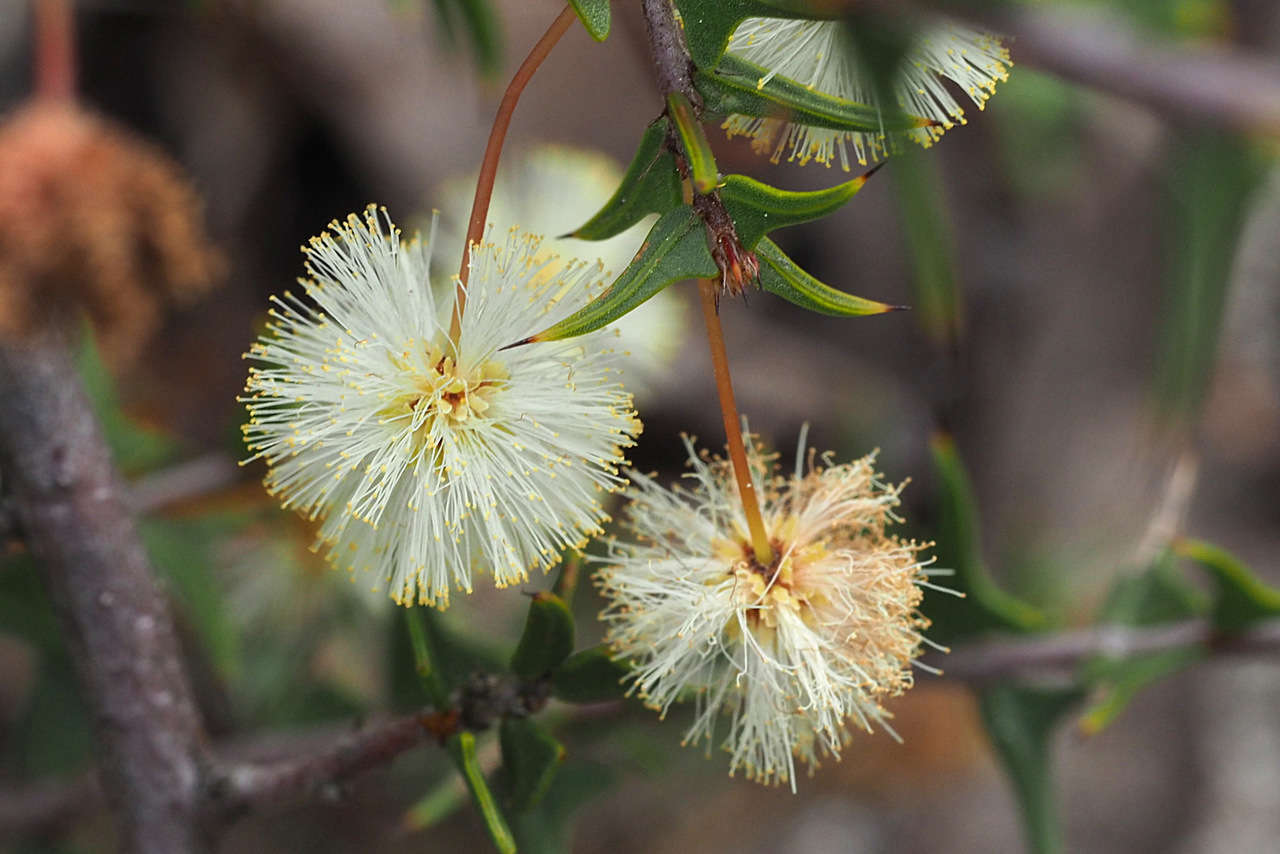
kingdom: Plantae
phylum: Tracheophyta
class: Magnoliopsida
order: Fabales
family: Fabaceae
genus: Acacia
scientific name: Acacia gunnii
